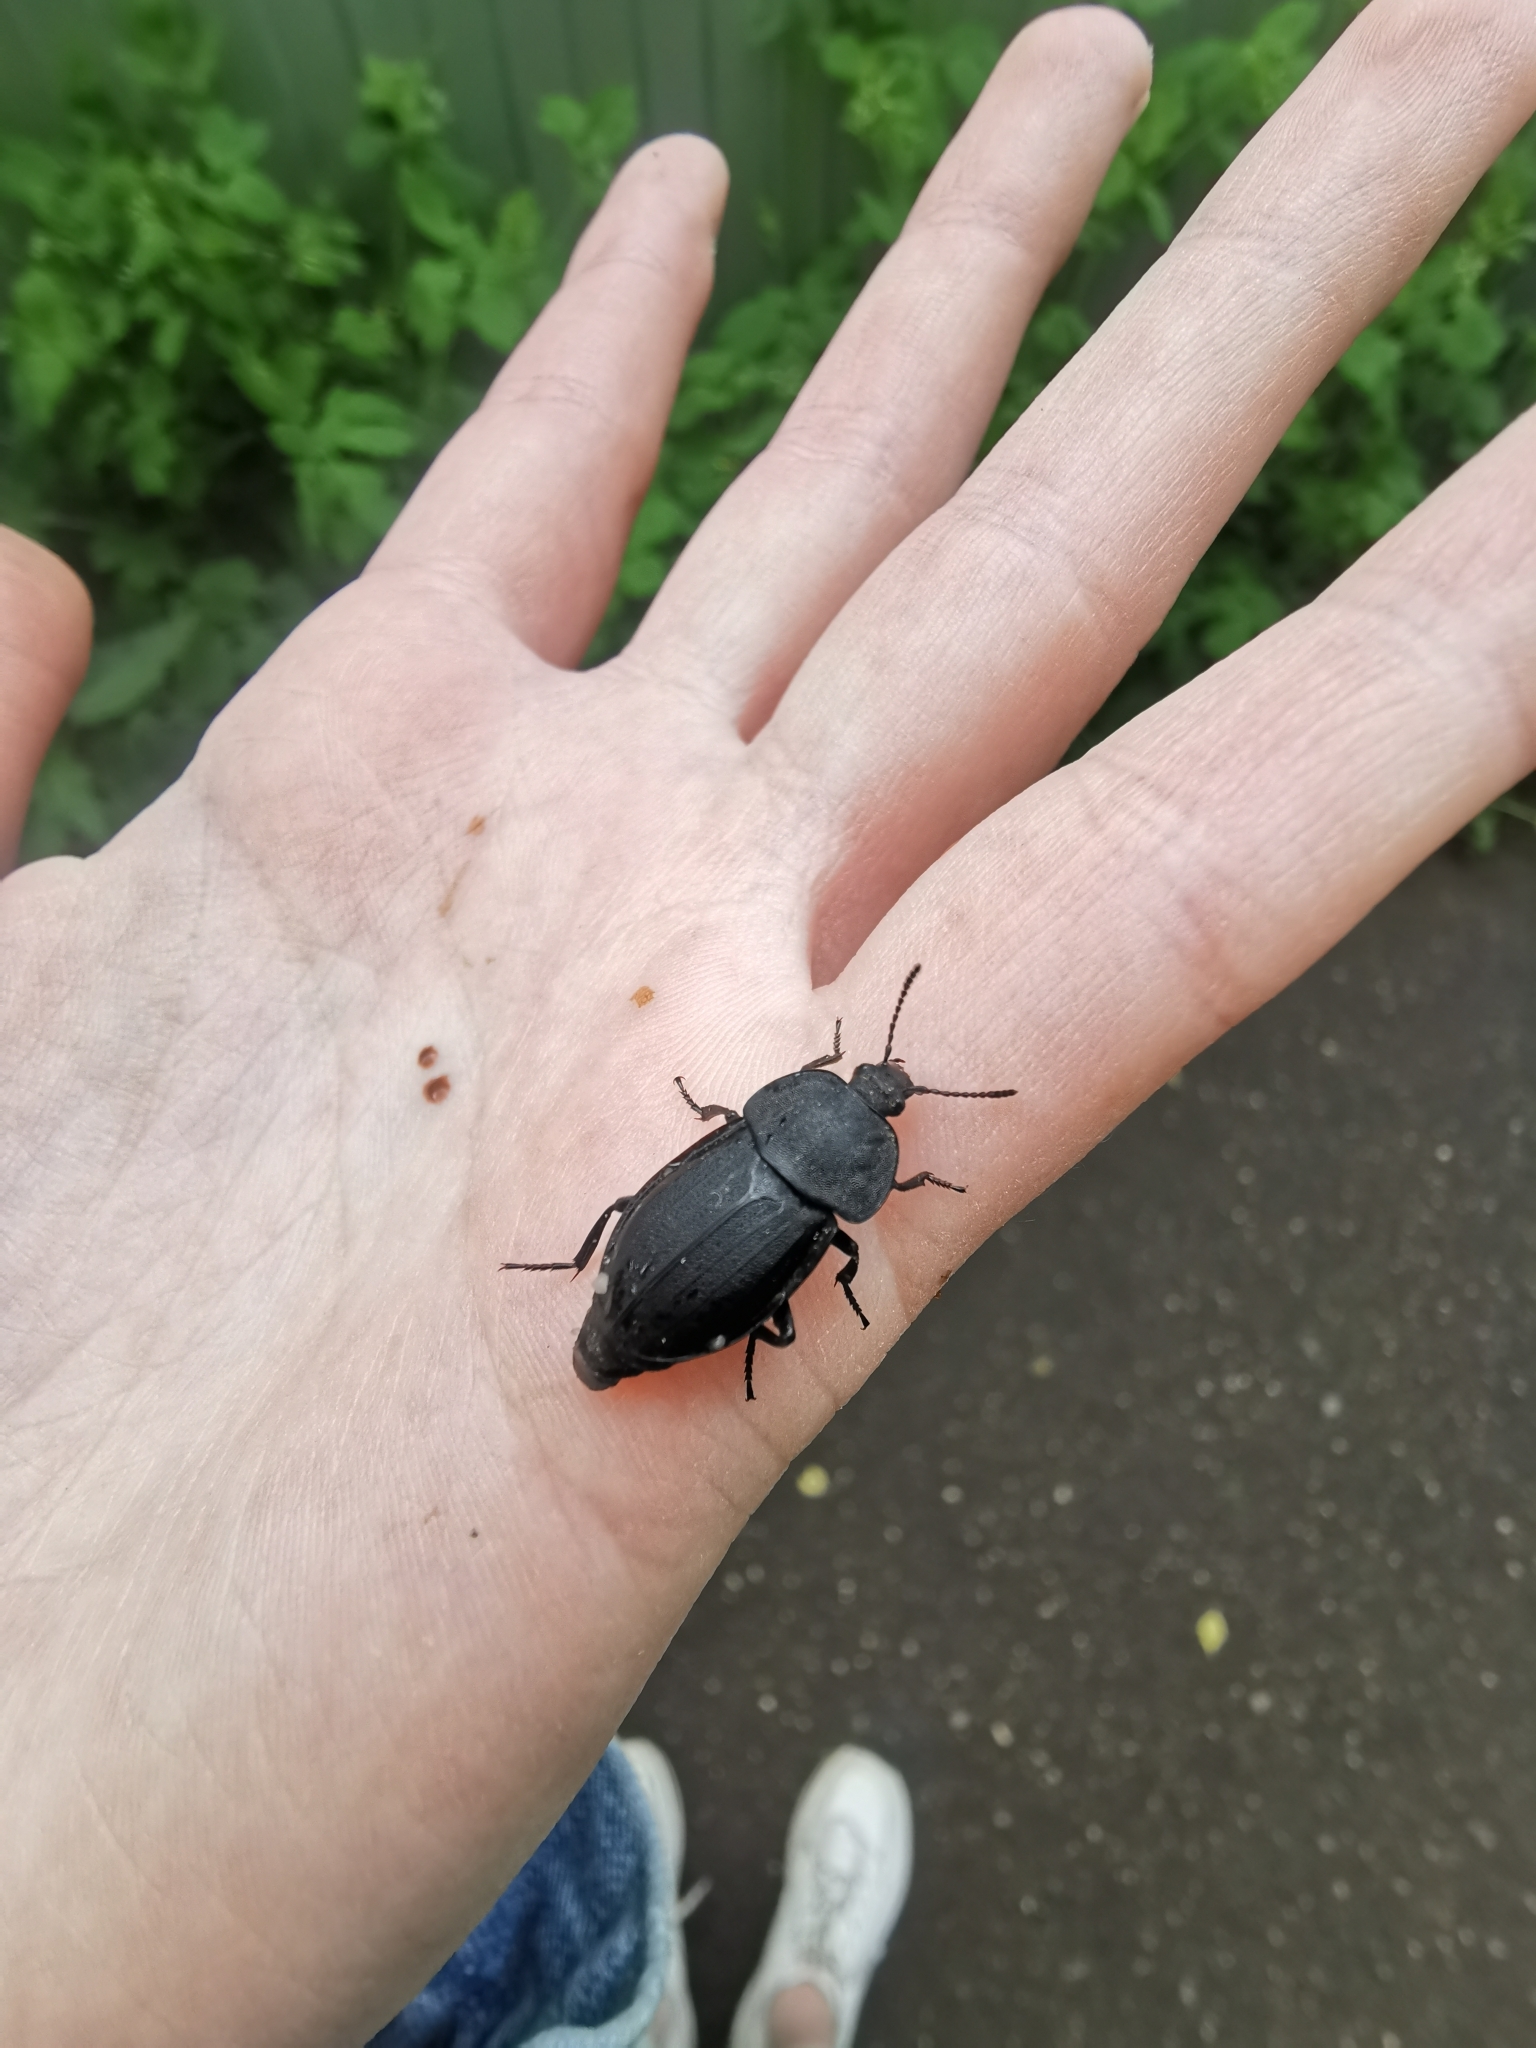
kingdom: Animalia
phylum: Arthropoda
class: Insecta
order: Coleoptera
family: Staphylinidae
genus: Silpha
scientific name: Silpha obscura
